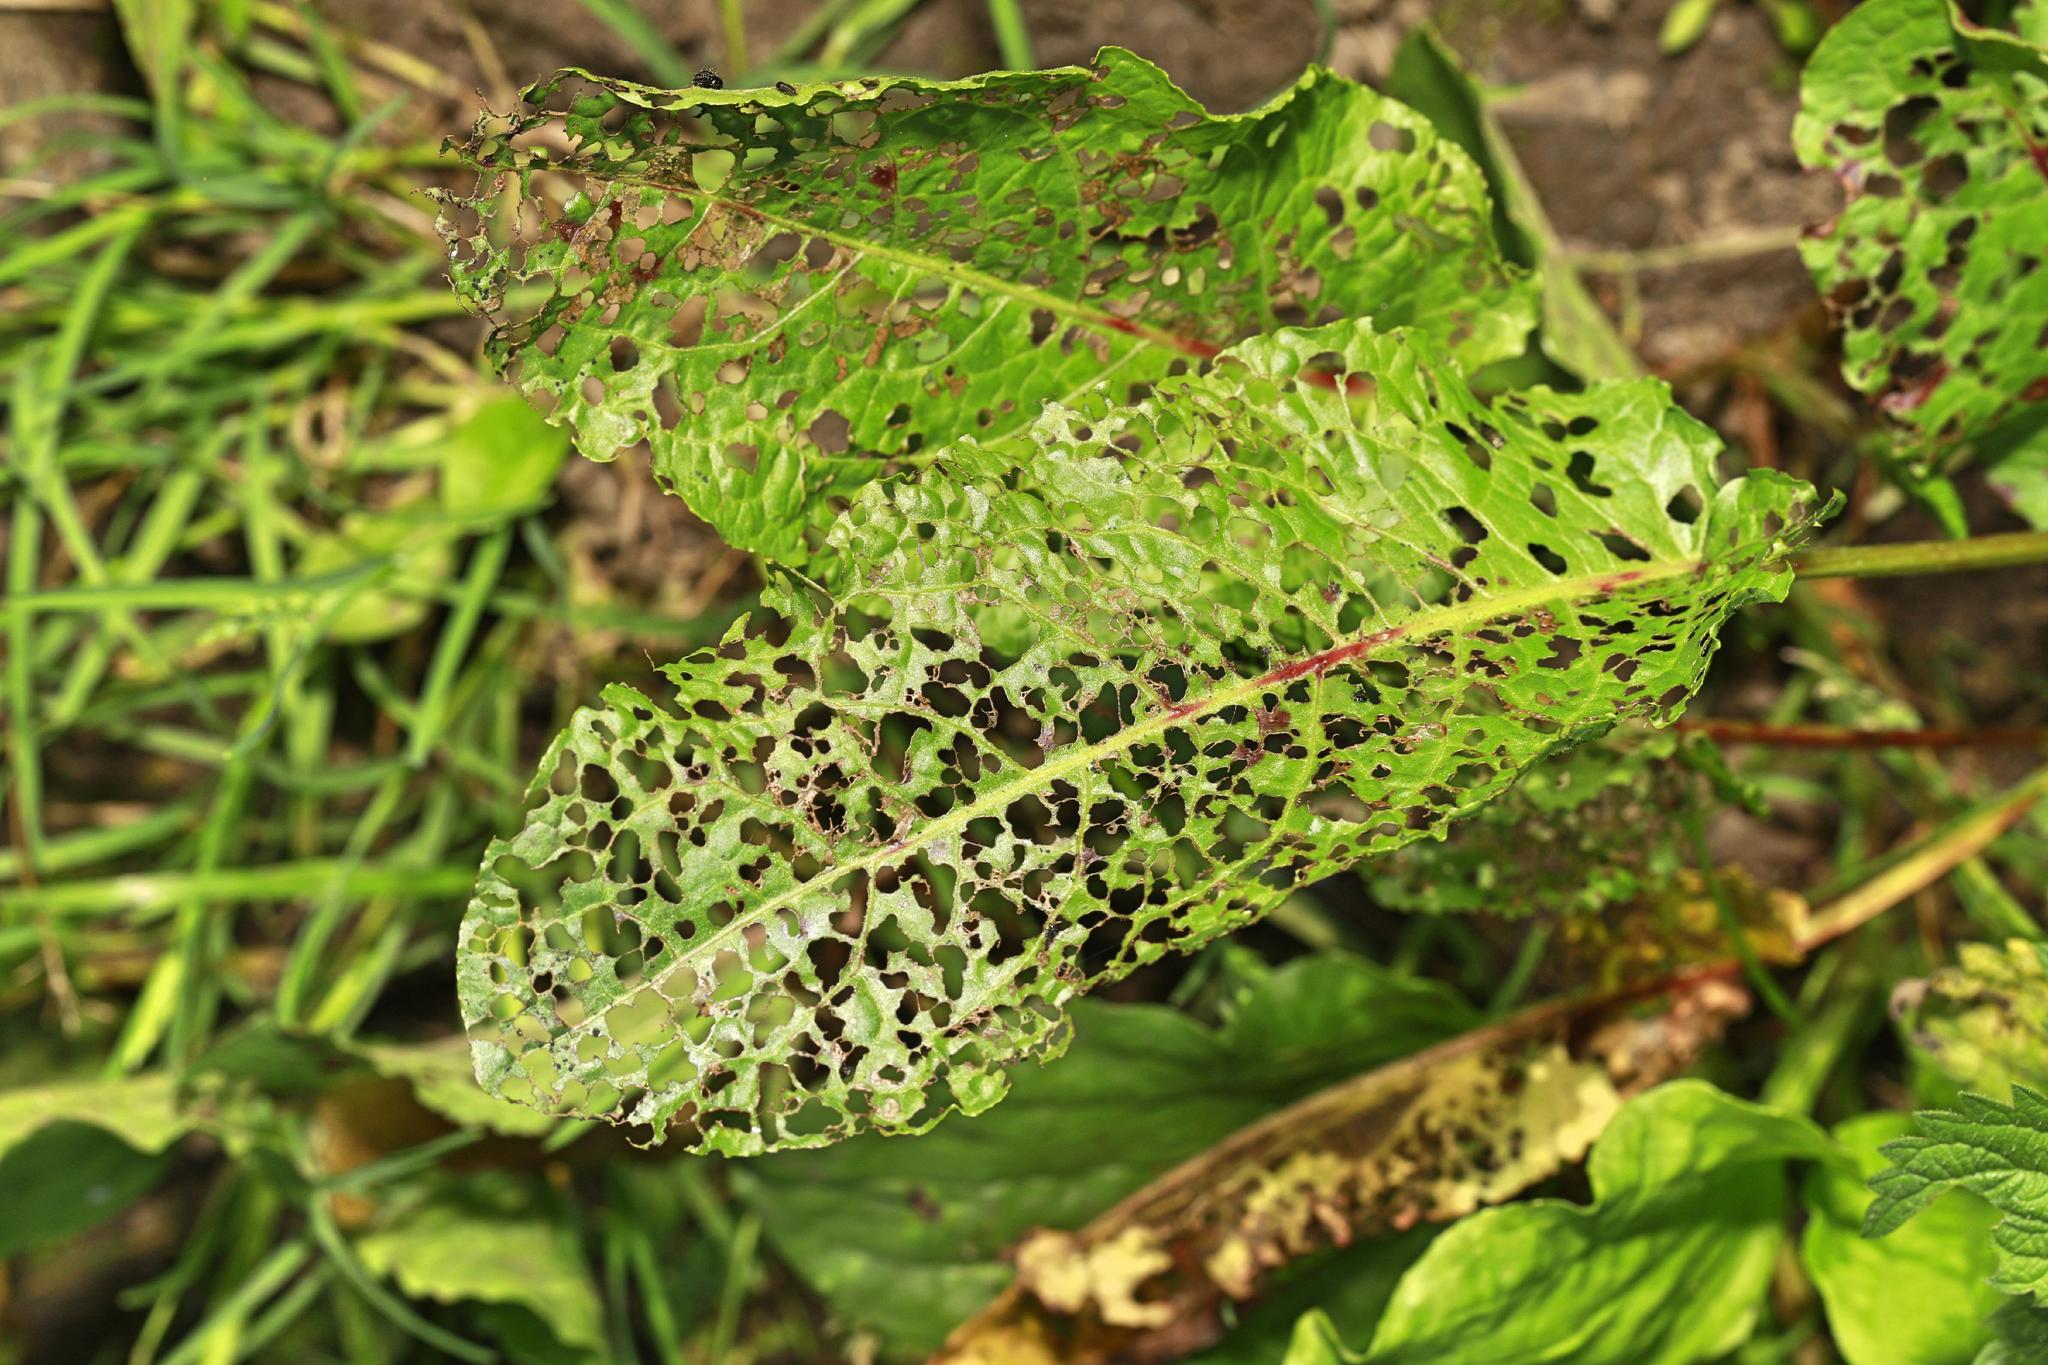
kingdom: Plantae
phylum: Tracheophyta
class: Magnoliopsida
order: Caryophyllales
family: Polygonaceae
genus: Rumex
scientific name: Rumex obtusifolius
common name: Bitter dock
